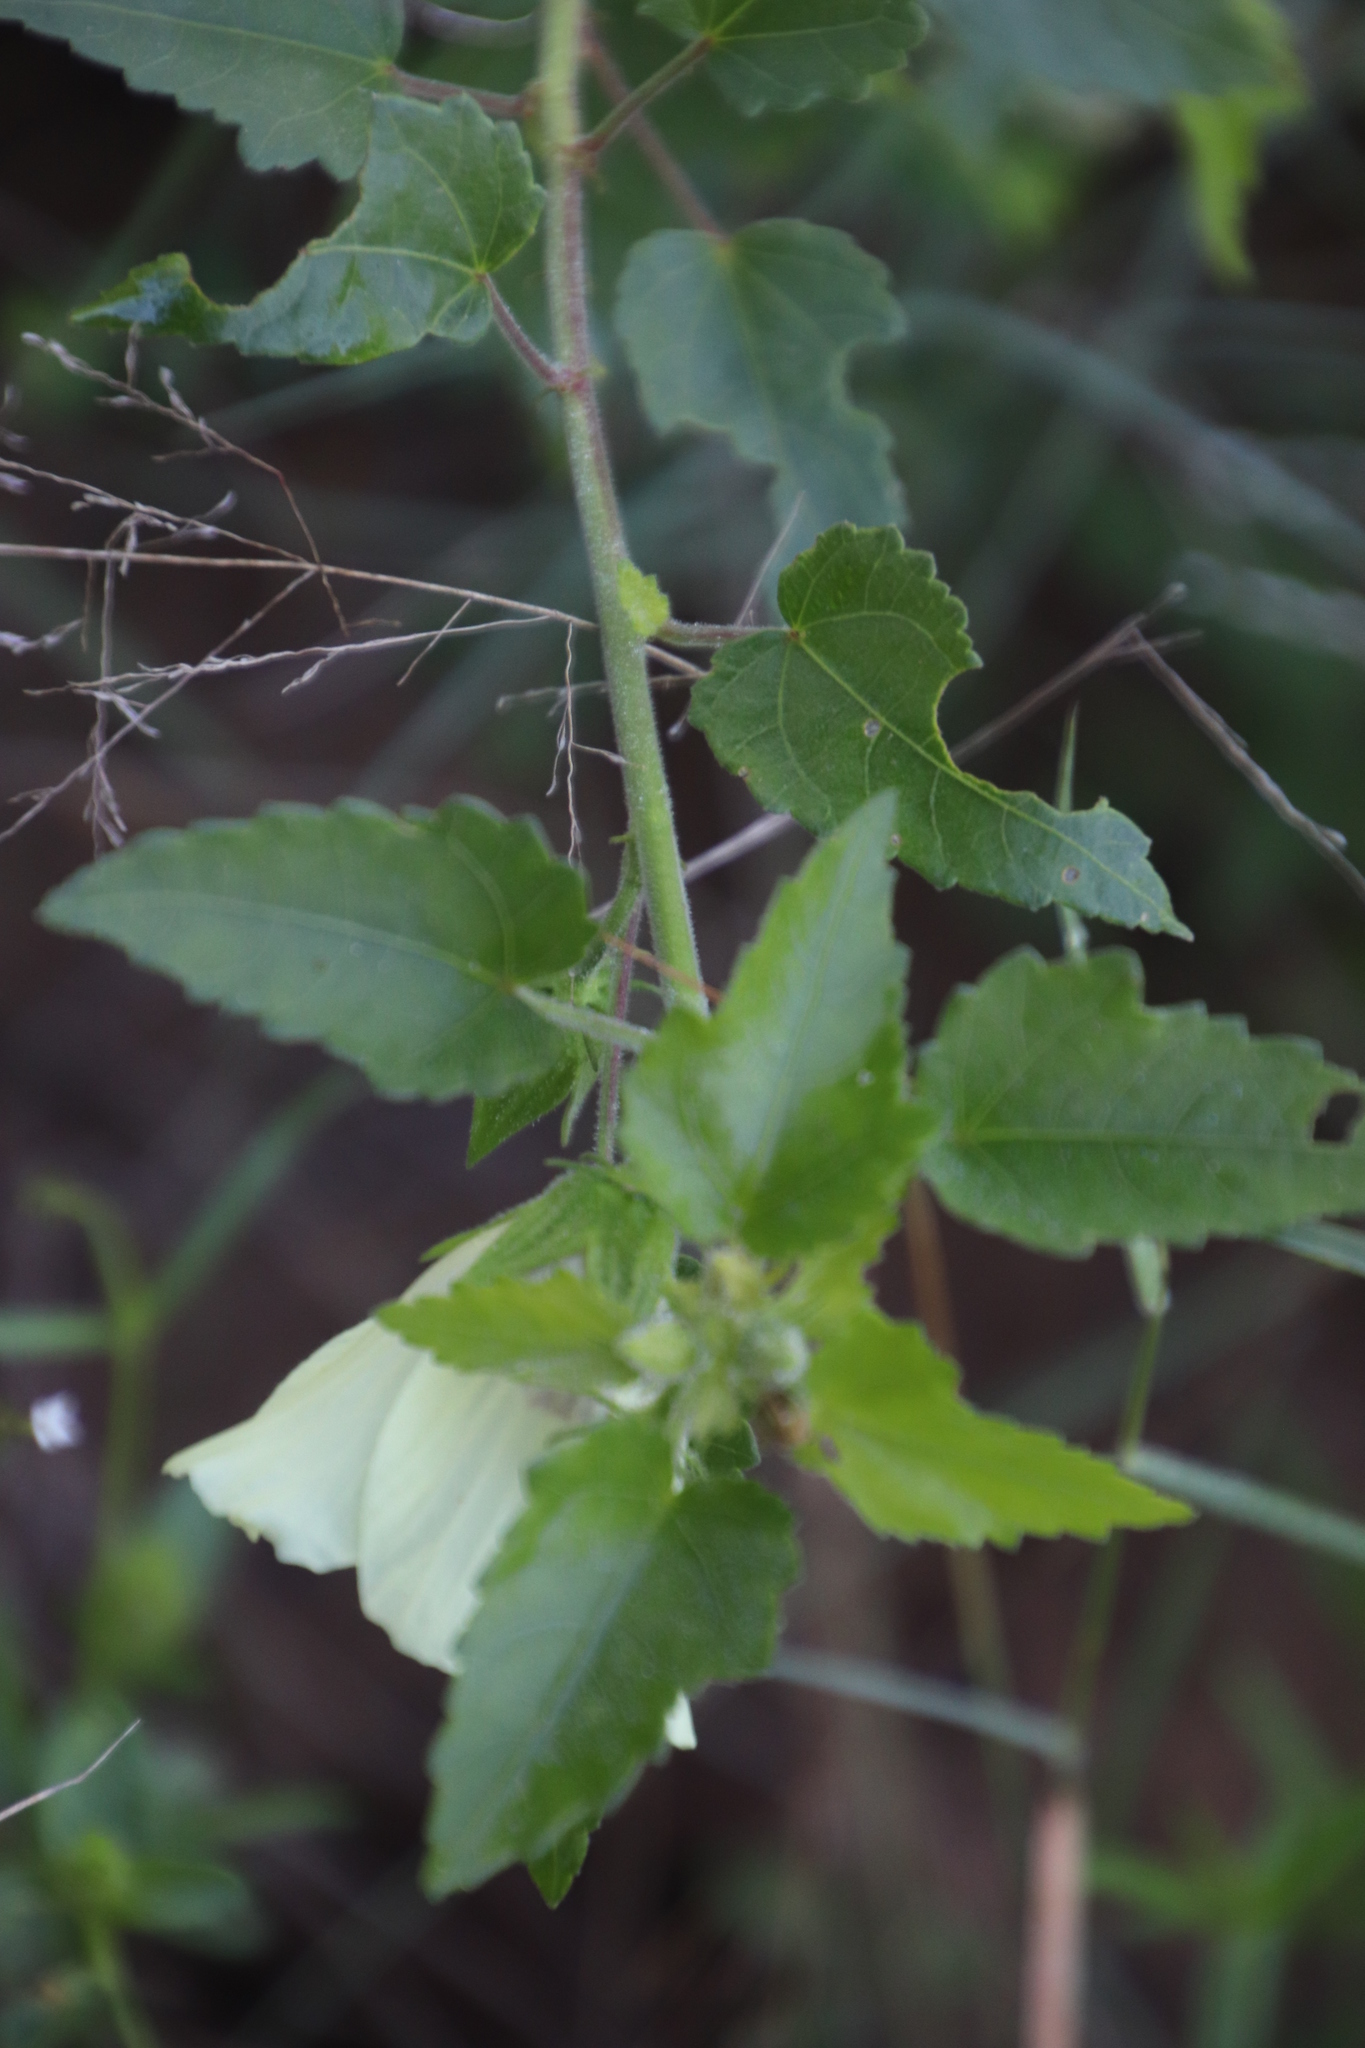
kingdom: Plantae
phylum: Tracheophyta
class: Magnoliopsida
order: Malvales
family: Malvaceae
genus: Hibiscus
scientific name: Hibiscus vitifolius
